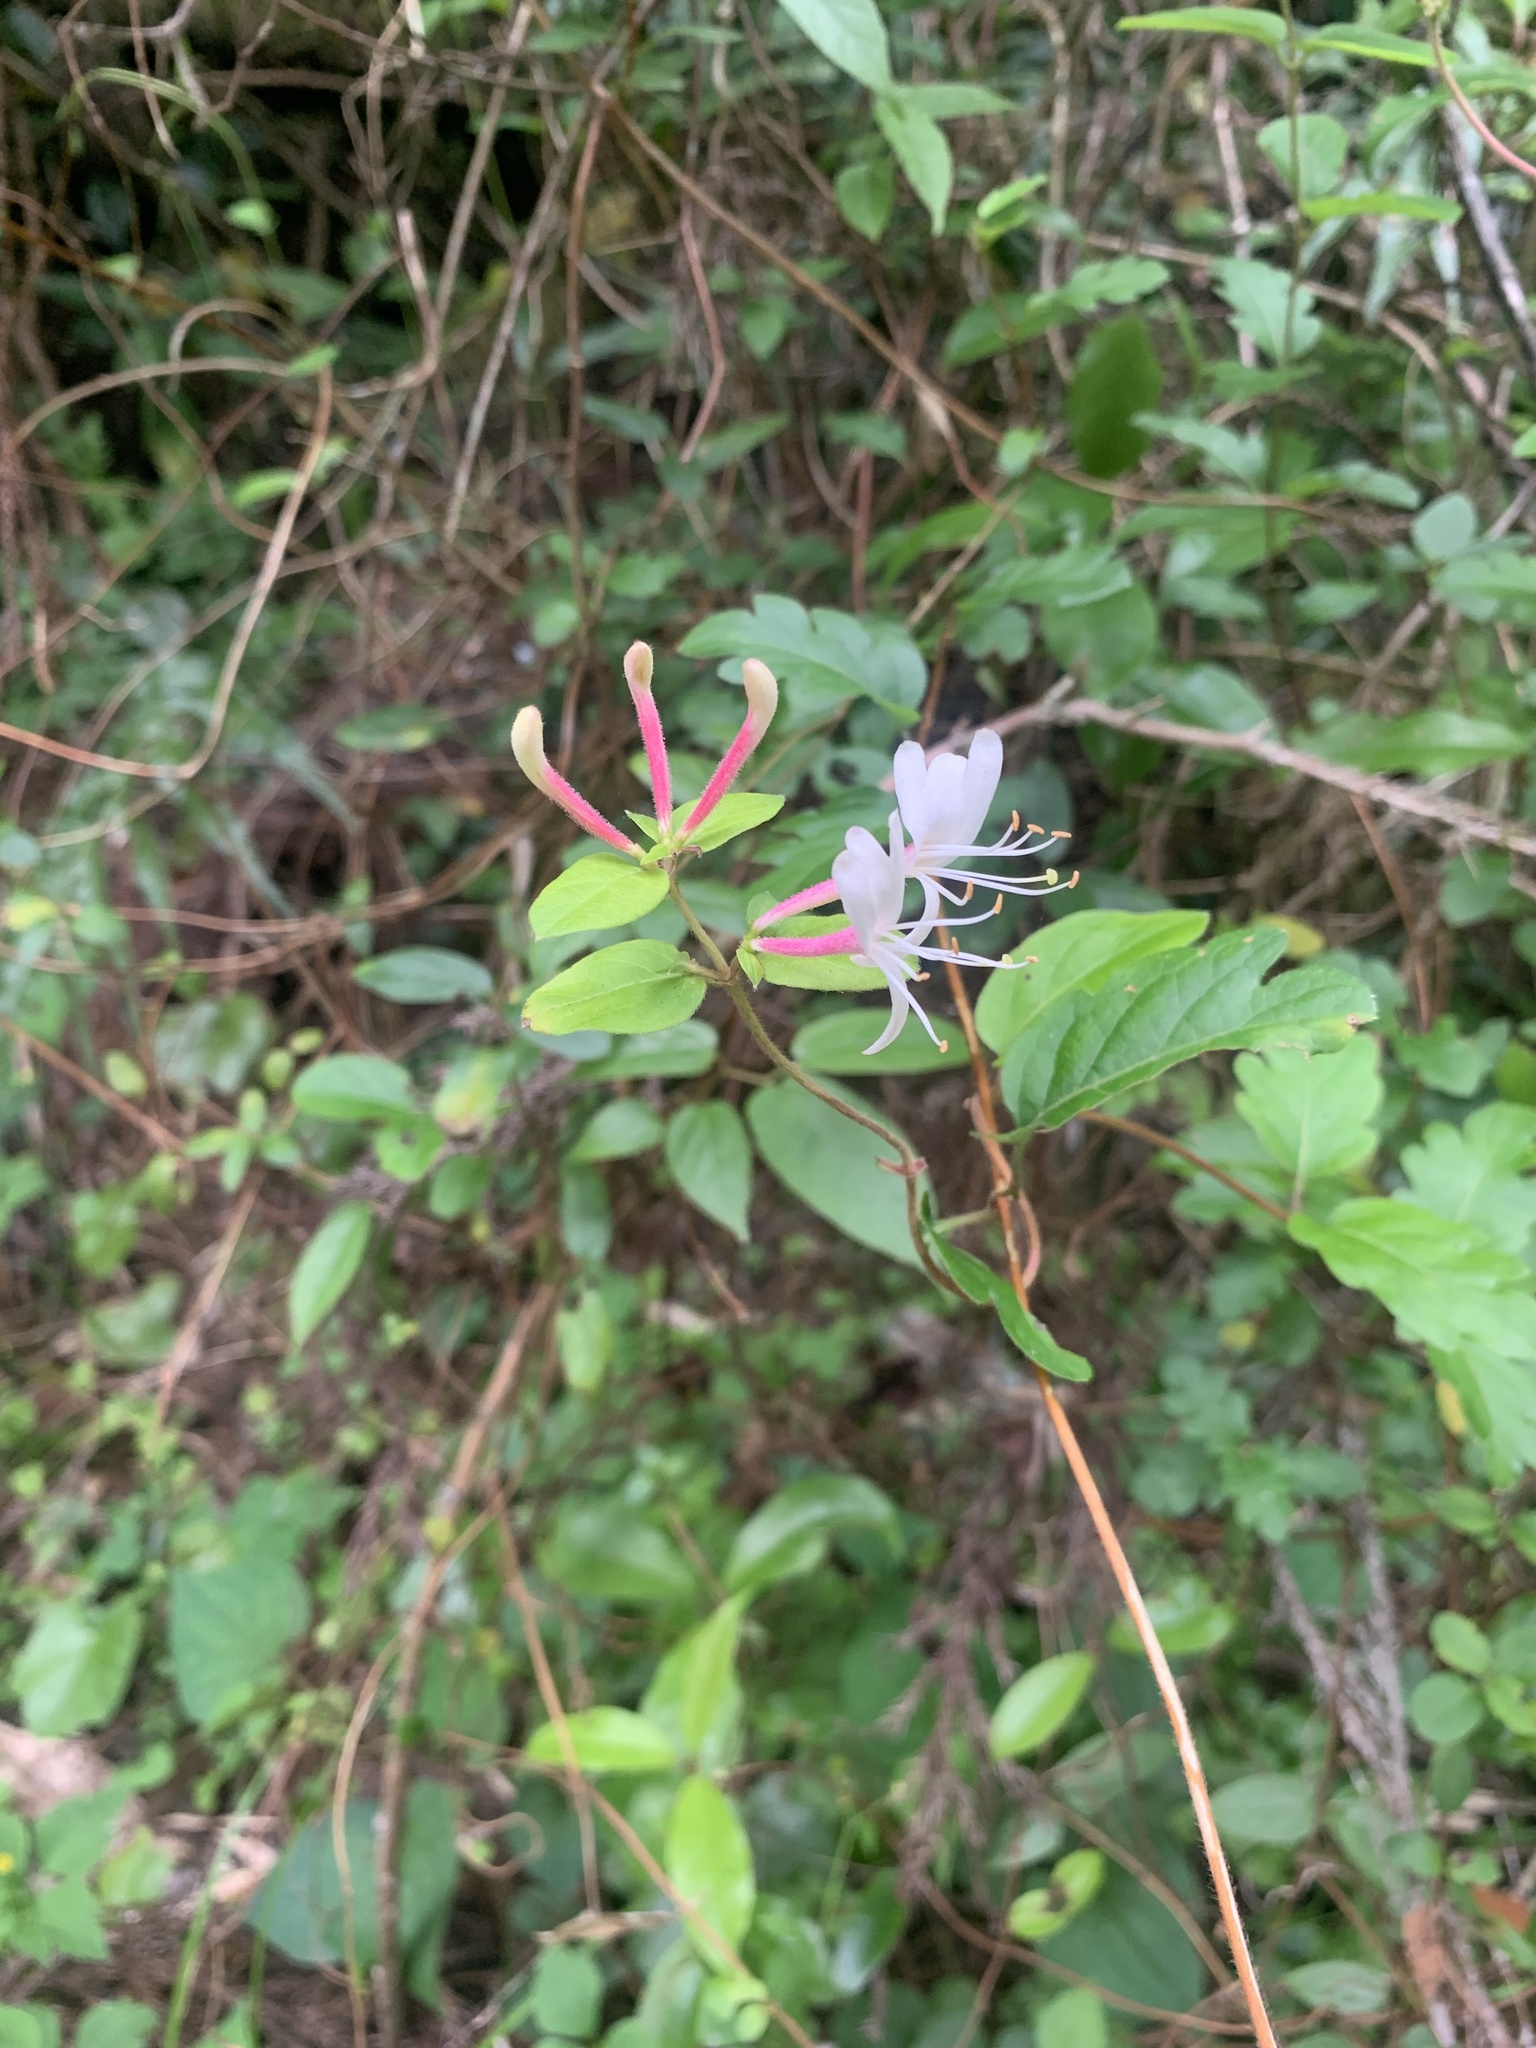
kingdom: Plantae
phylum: Tracheophyta
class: Magnoliopsida
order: Dipsacales
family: Caprifoliaceae
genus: Lonicera
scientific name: Lonicera japonica
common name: Japanese honeysuckle
